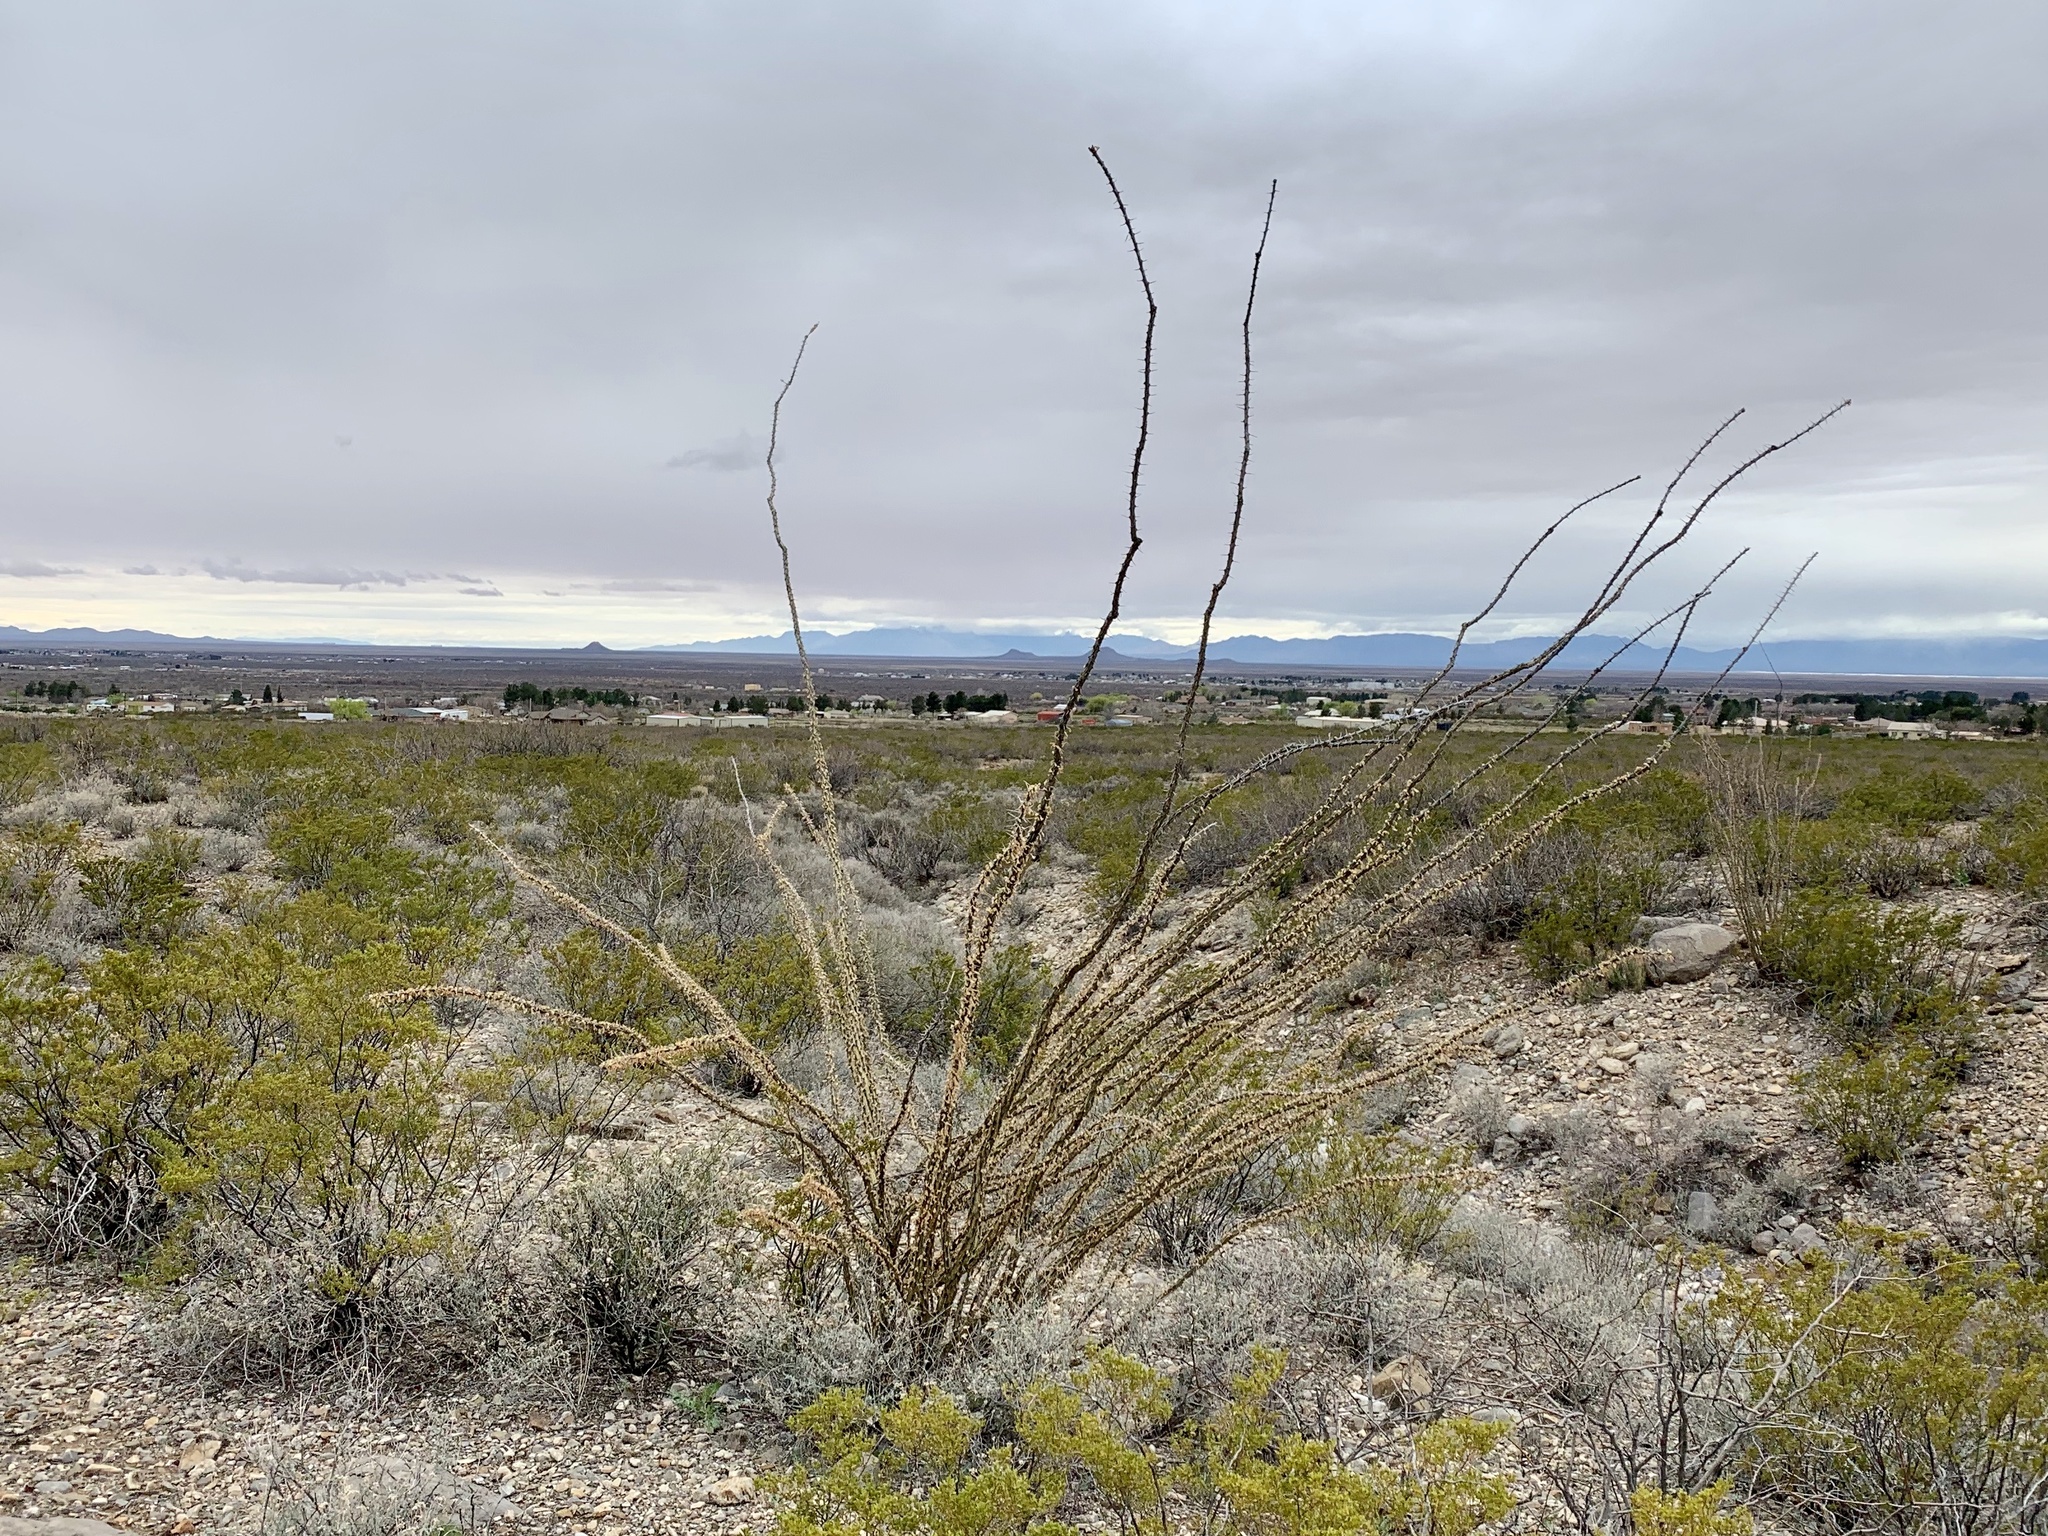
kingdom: Plantae
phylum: Tracheophyta
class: Magnoliopsida
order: Ericales
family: Fouquieriaceae
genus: Fouquieria
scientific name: Fouquieria splendens
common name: Vine-cactus
